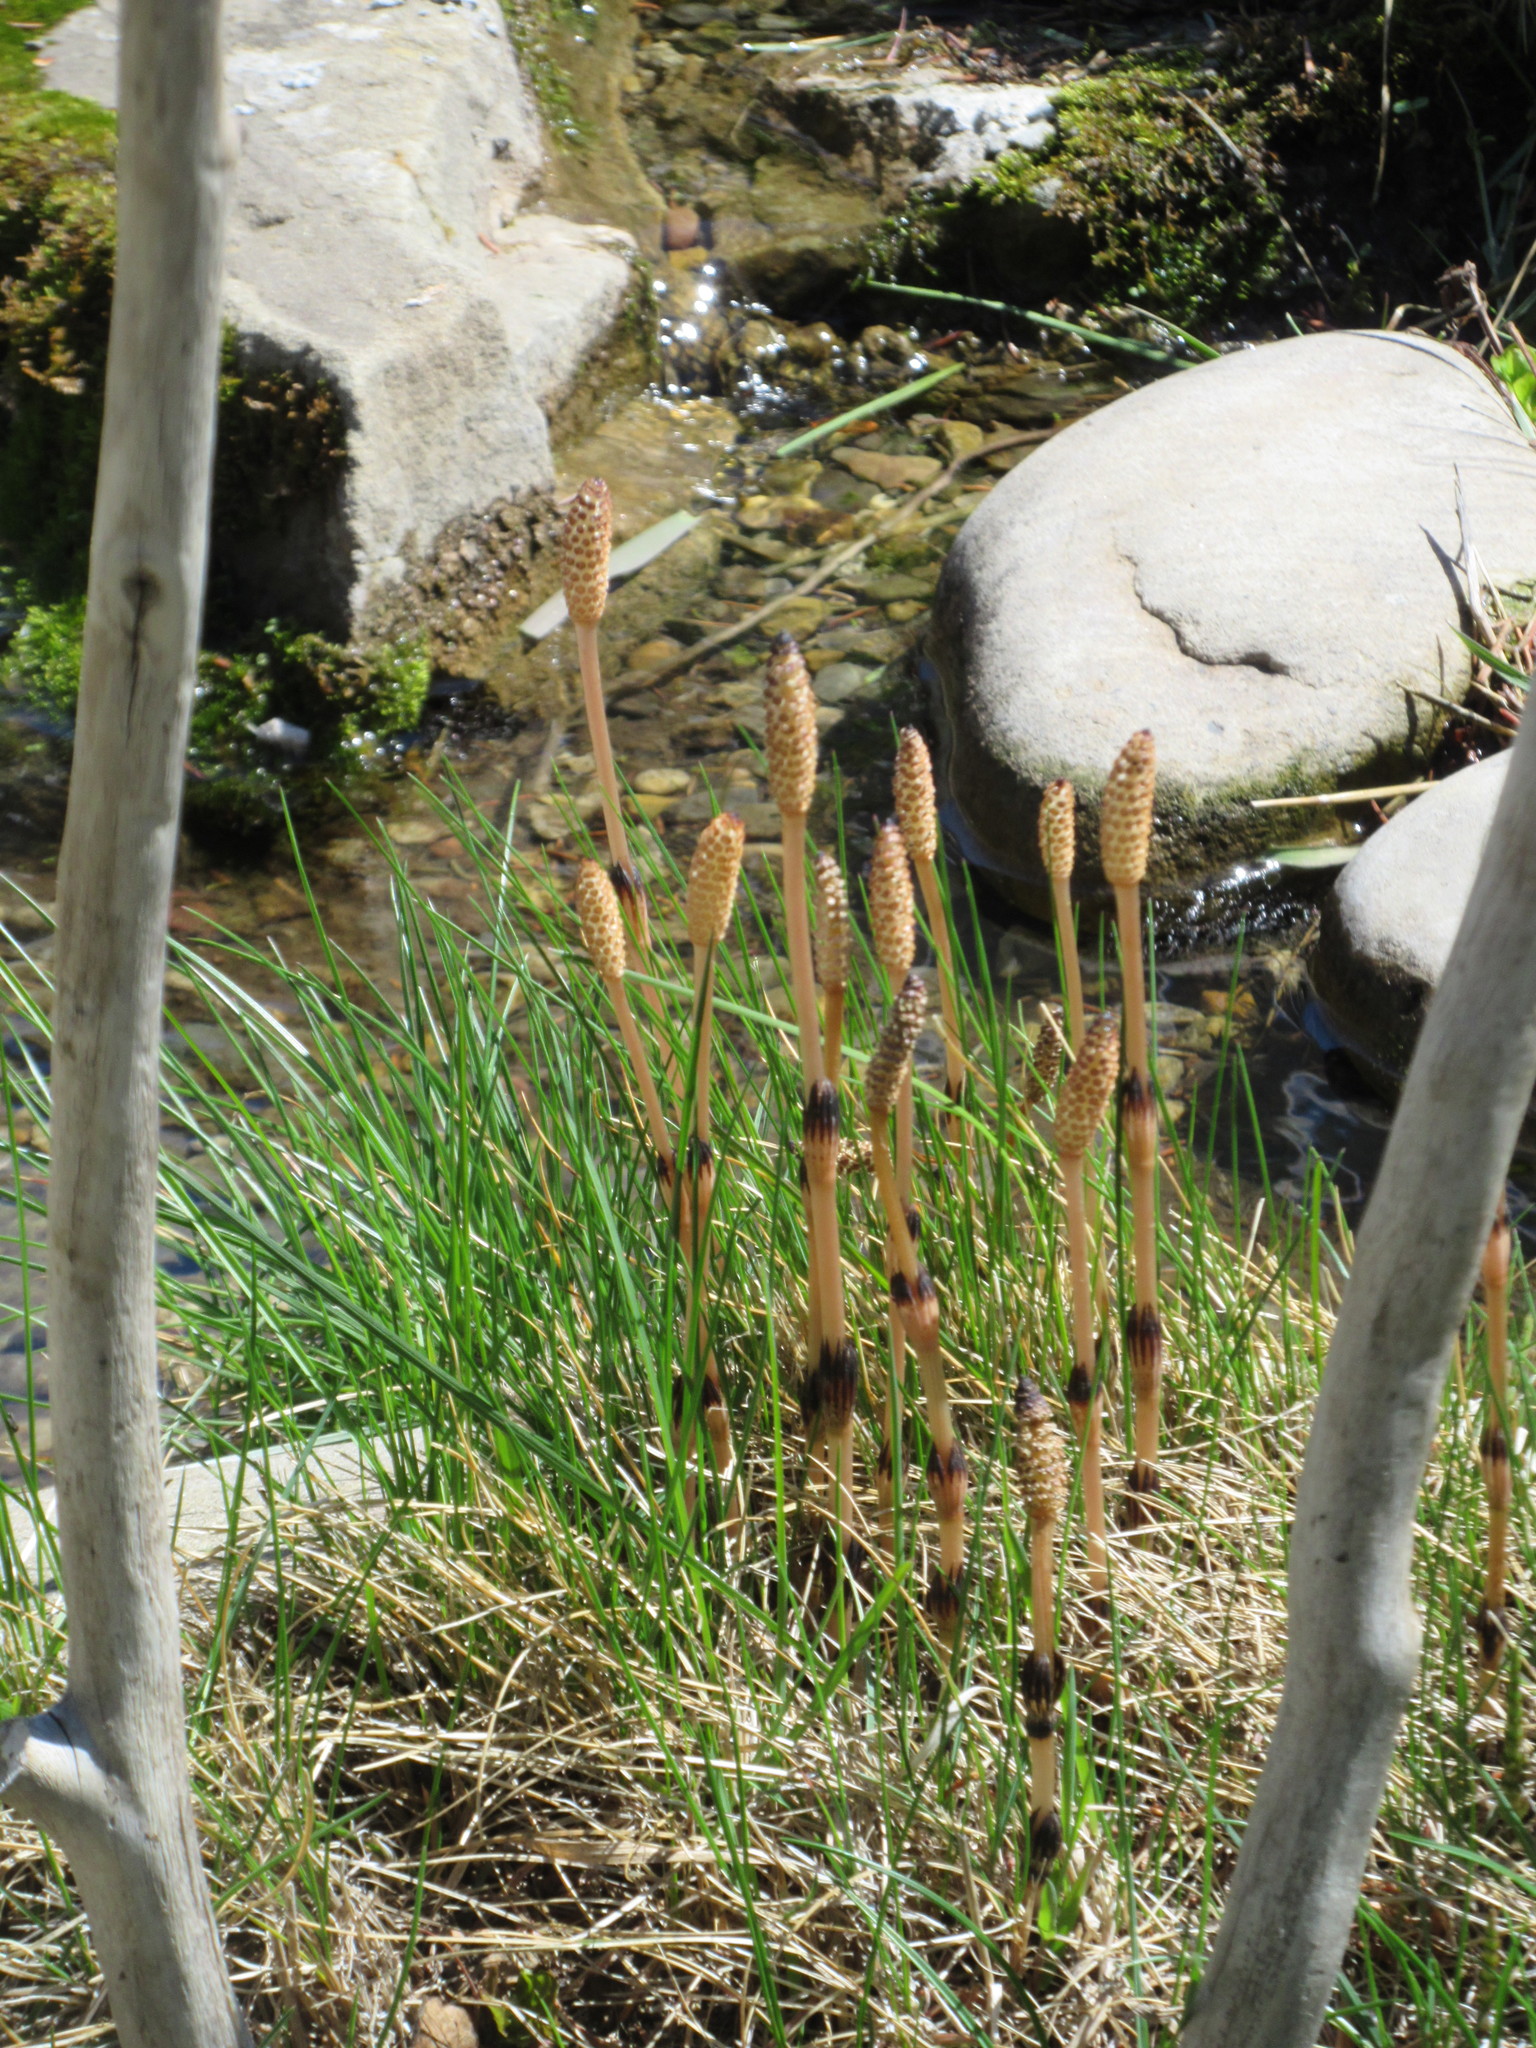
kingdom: Plantae
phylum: Tracheophyta
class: Polypodiopsida
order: Equisetales
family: Equisetaceae
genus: Equisetum
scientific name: Equisetum arvense
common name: Field horsetail
